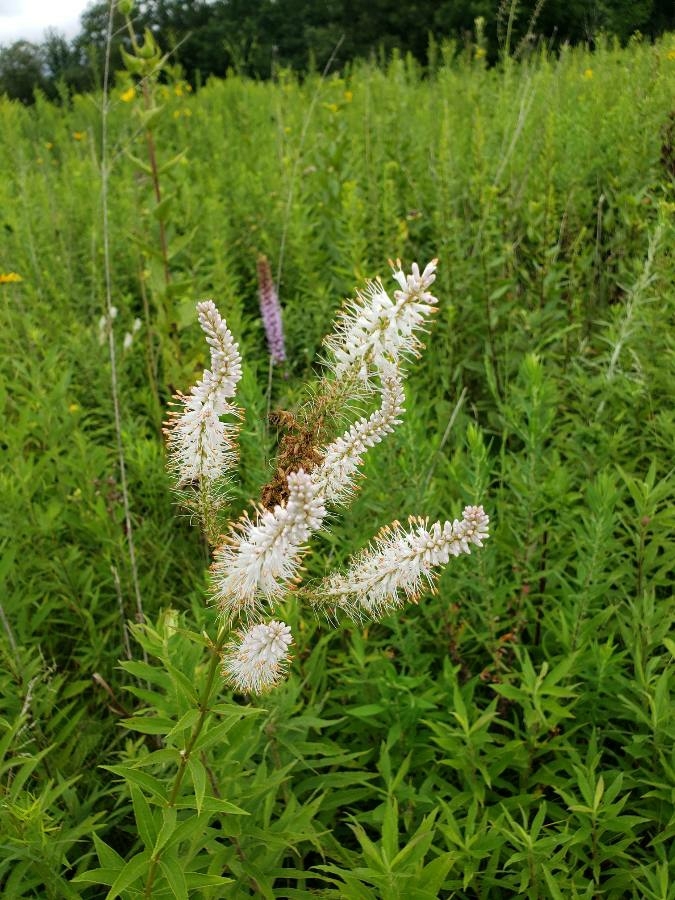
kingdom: Plantae
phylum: Tracheophyta
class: Magnoliopsida
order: Lamiales
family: Plantaginaceae
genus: Veronicastrum
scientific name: Veronicastrum virginicum
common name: Blackroot
